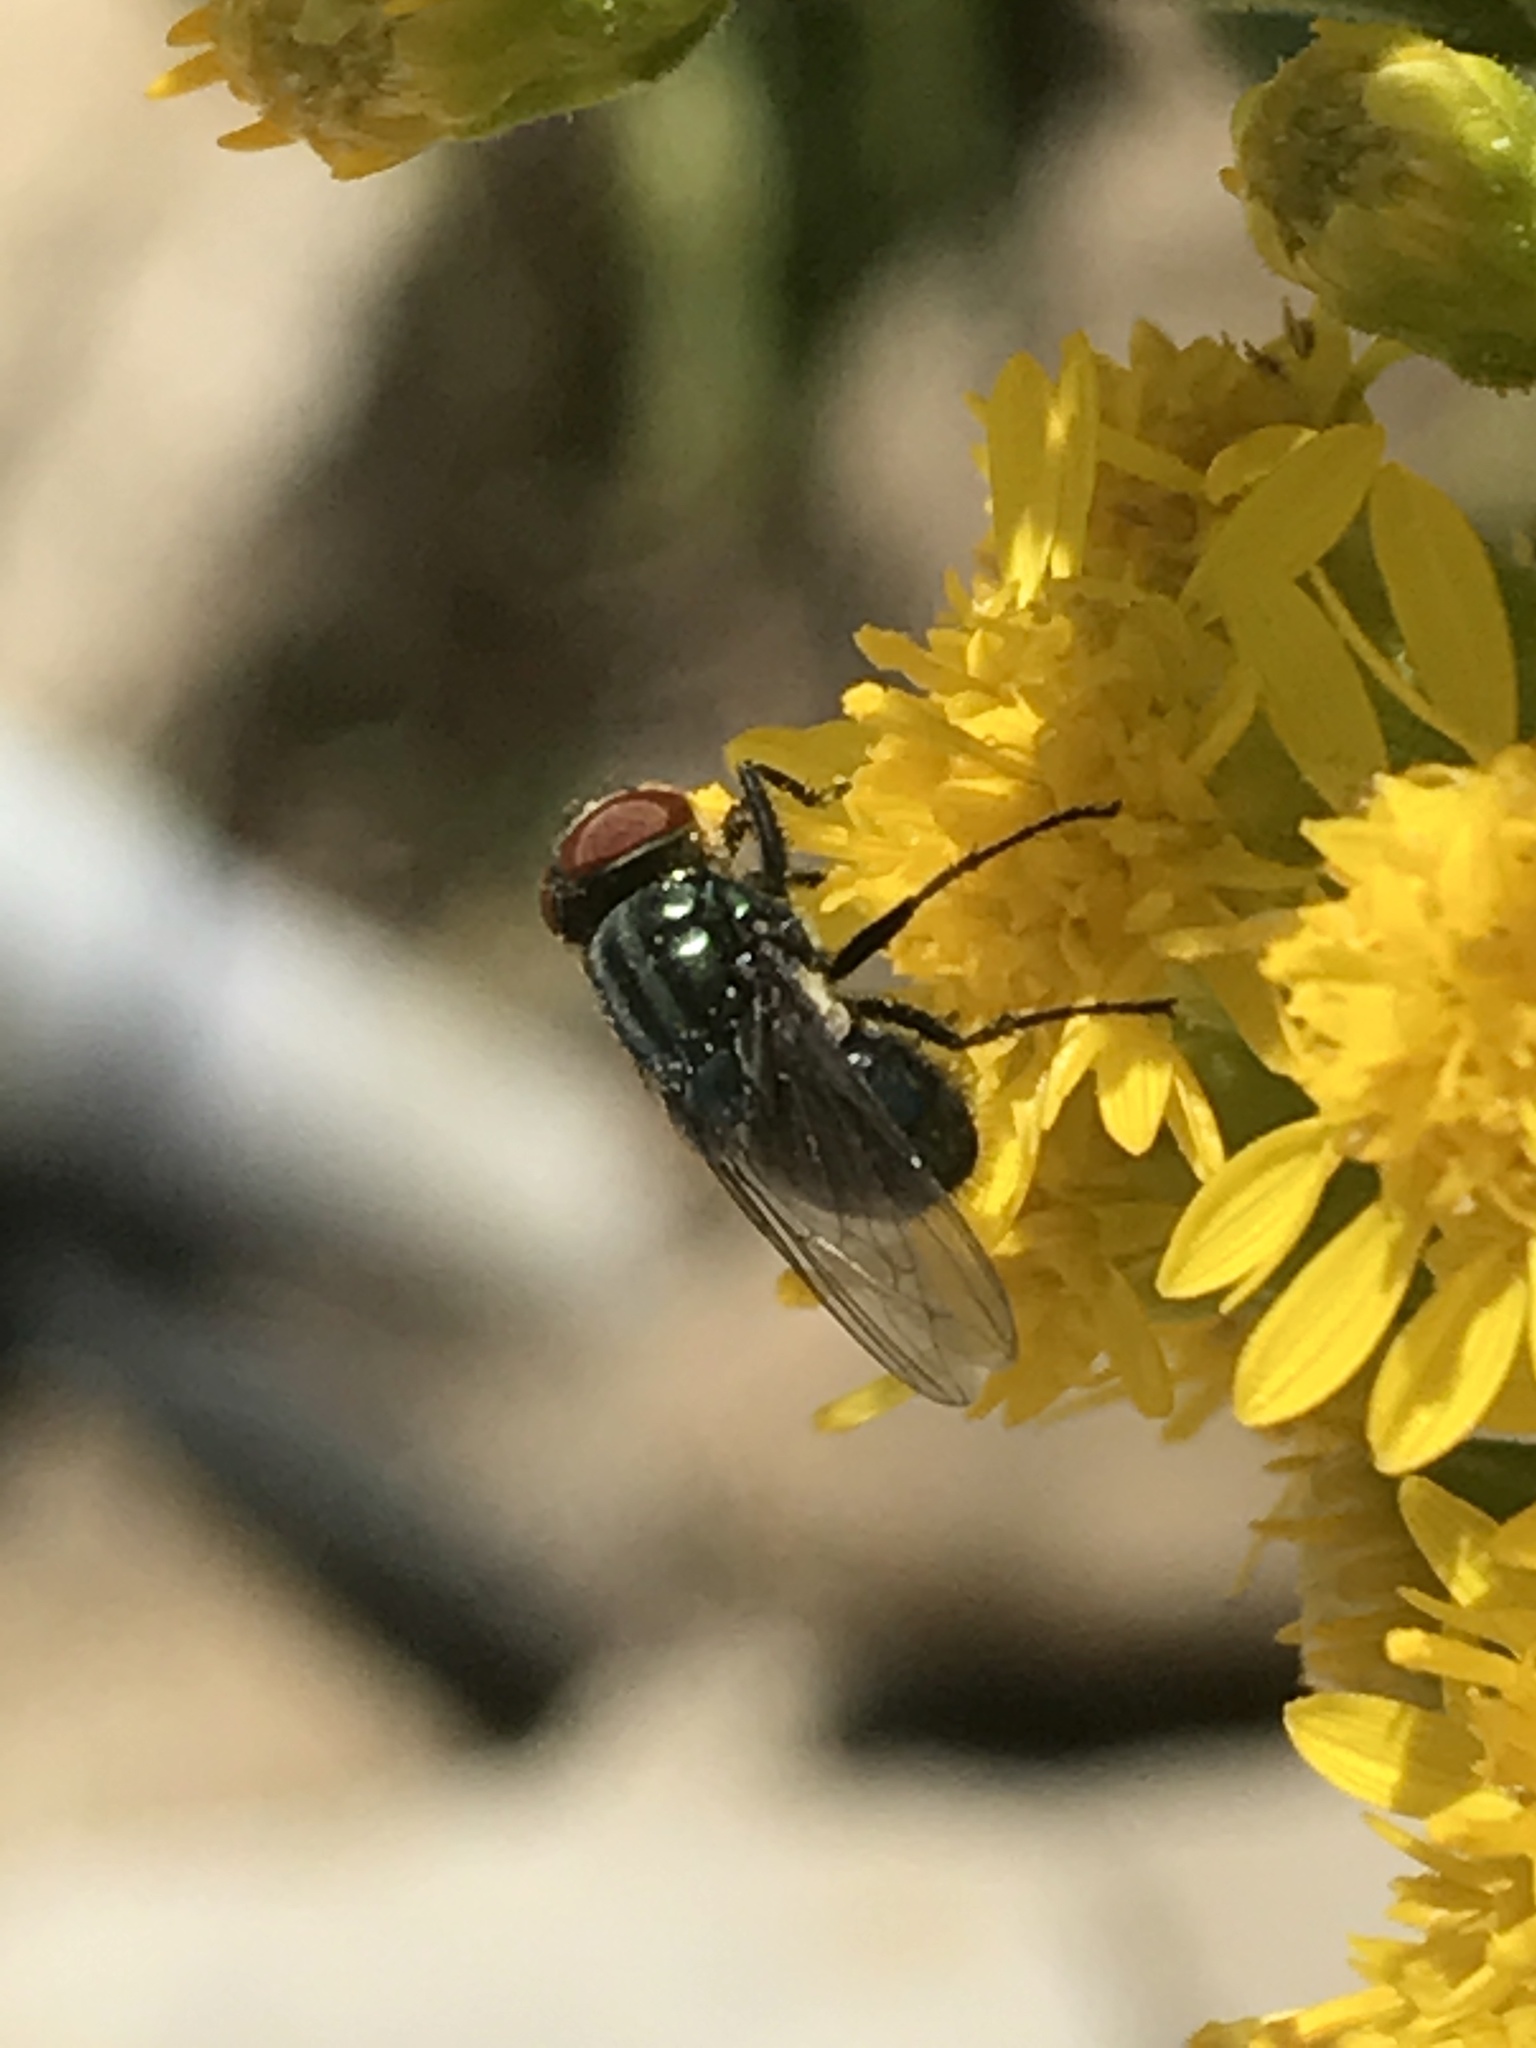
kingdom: Animalia
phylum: Arthropoda
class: Insecta
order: Diptera
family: Calliphoridae
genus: Cochliomyia
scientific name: Cochliomyia macellaria
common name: Secondary screwworm
